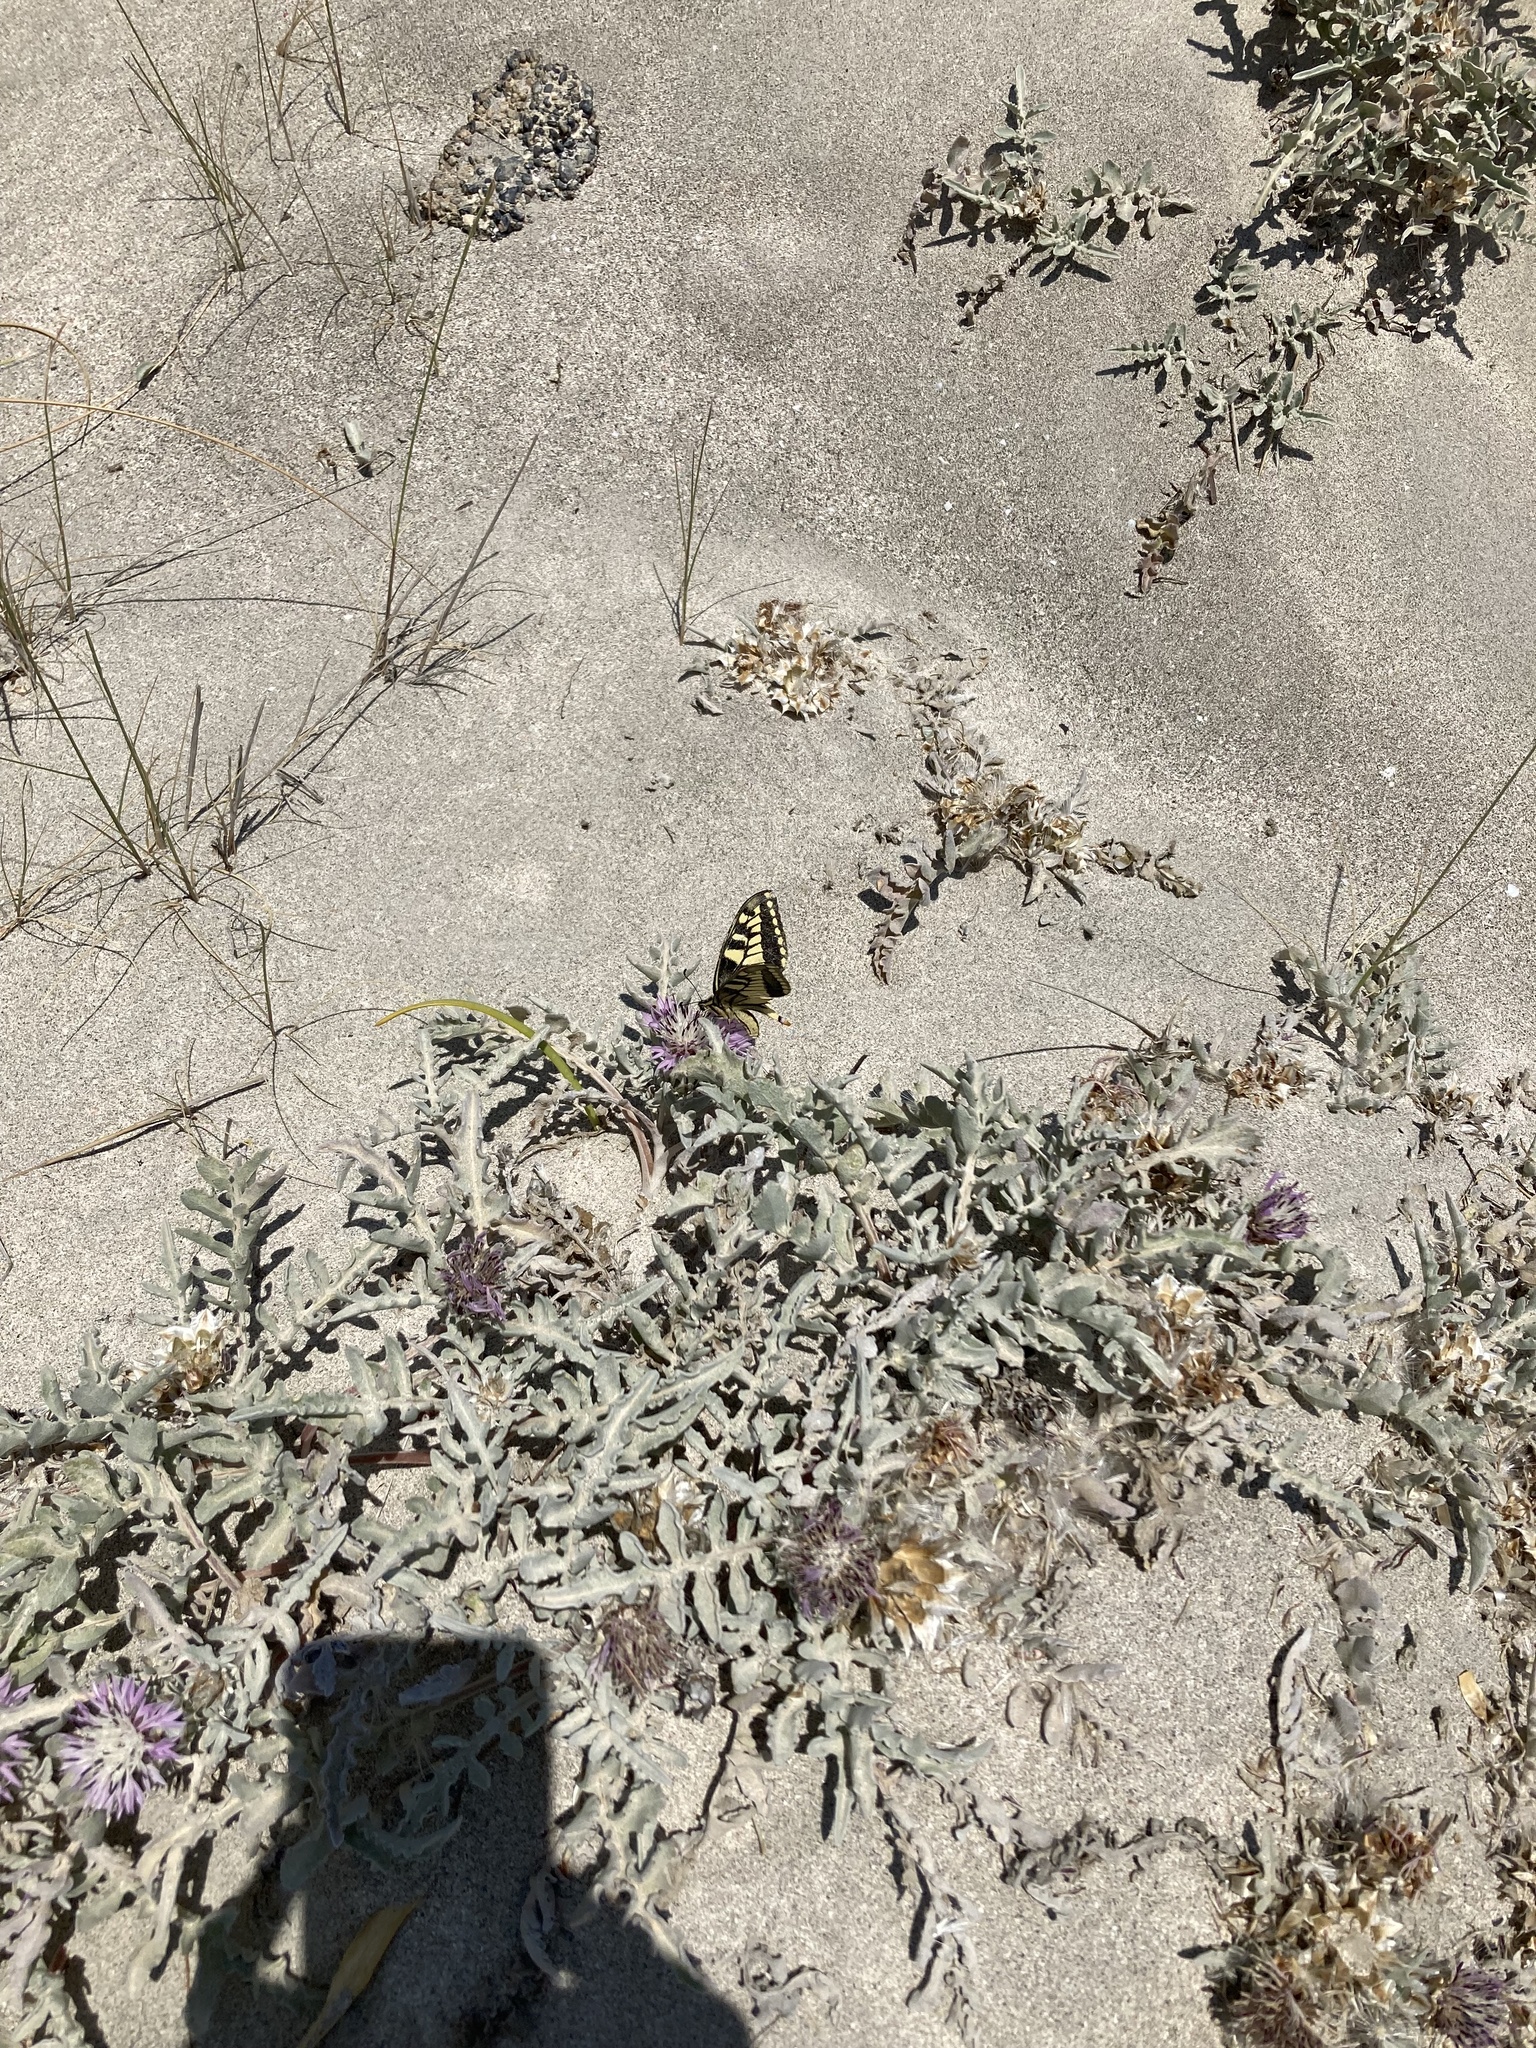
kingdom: Animalia
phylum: Arthropoda
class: Insecta
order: Lepidoptera
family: Papilionidae
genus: Papilio
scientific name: Papilio machaon
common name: Swallowtail
